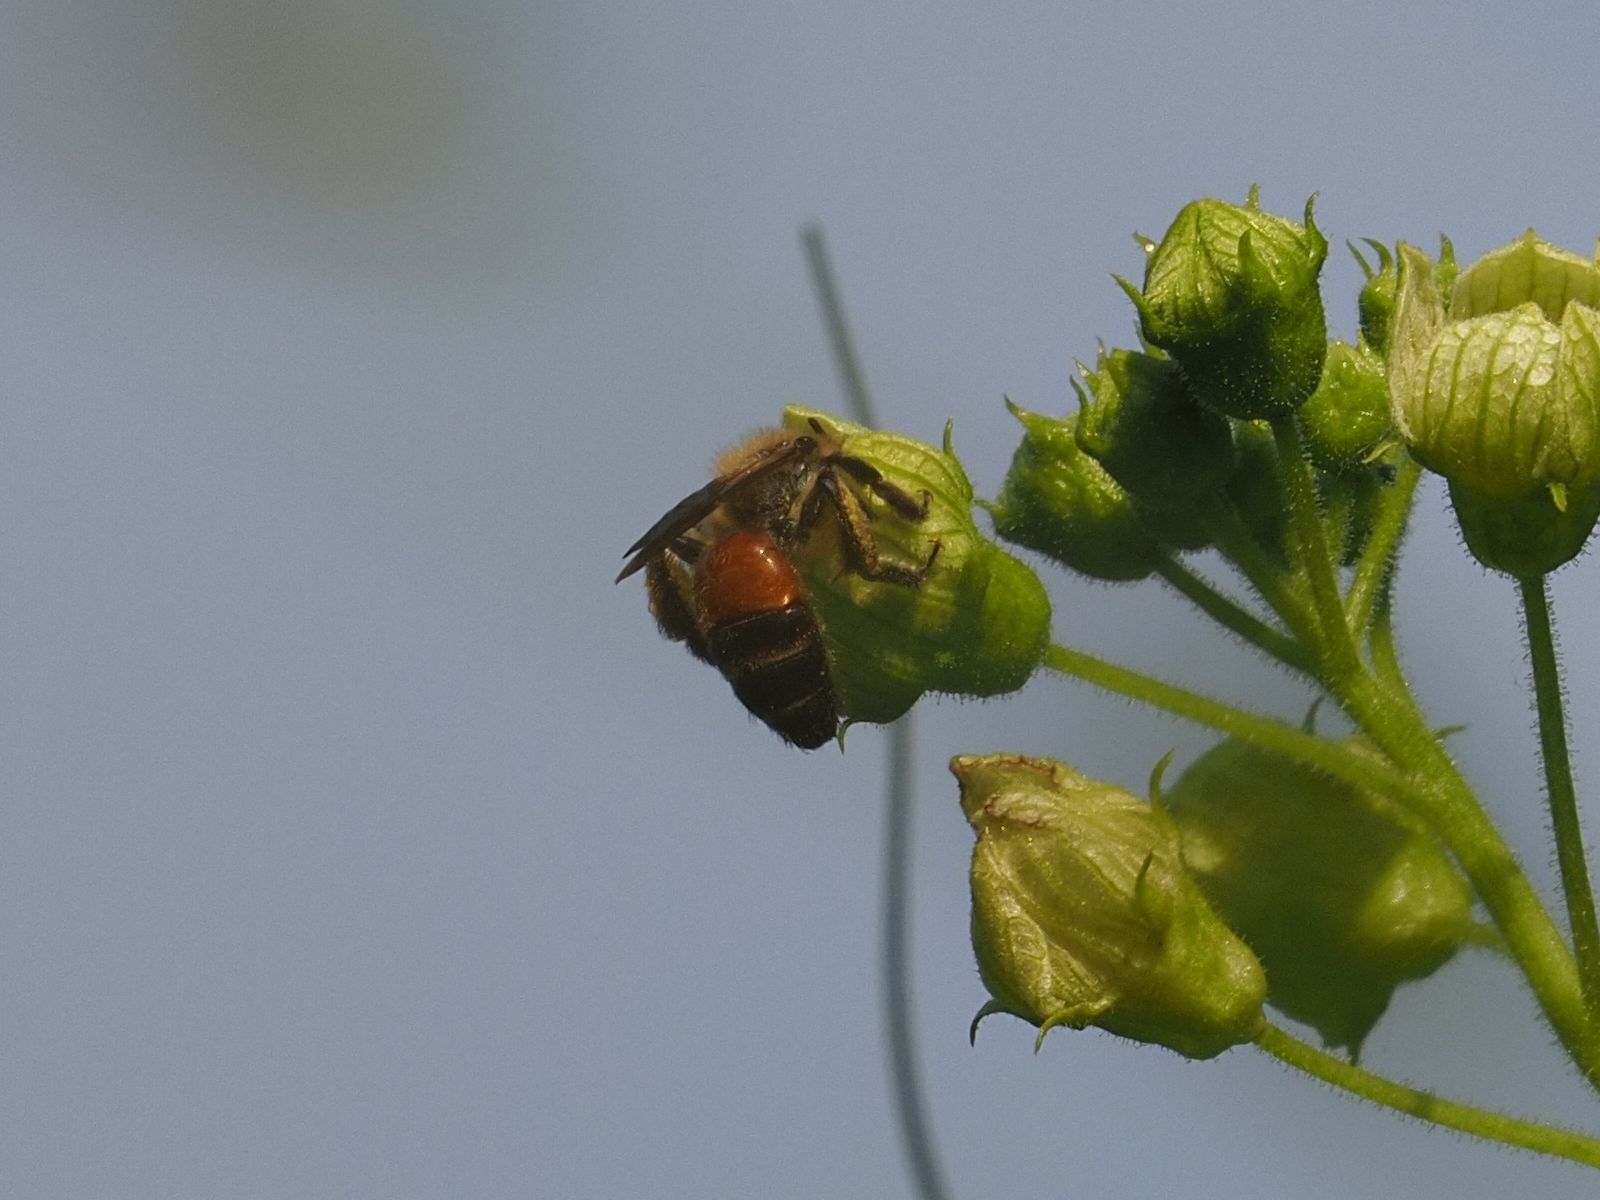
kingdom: Animalia
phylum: Arthropoda
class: Insecta
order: Hymenoptera
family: Andrenidae
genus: Andrena
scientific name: Andrena florea
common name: Bryony mining bee
